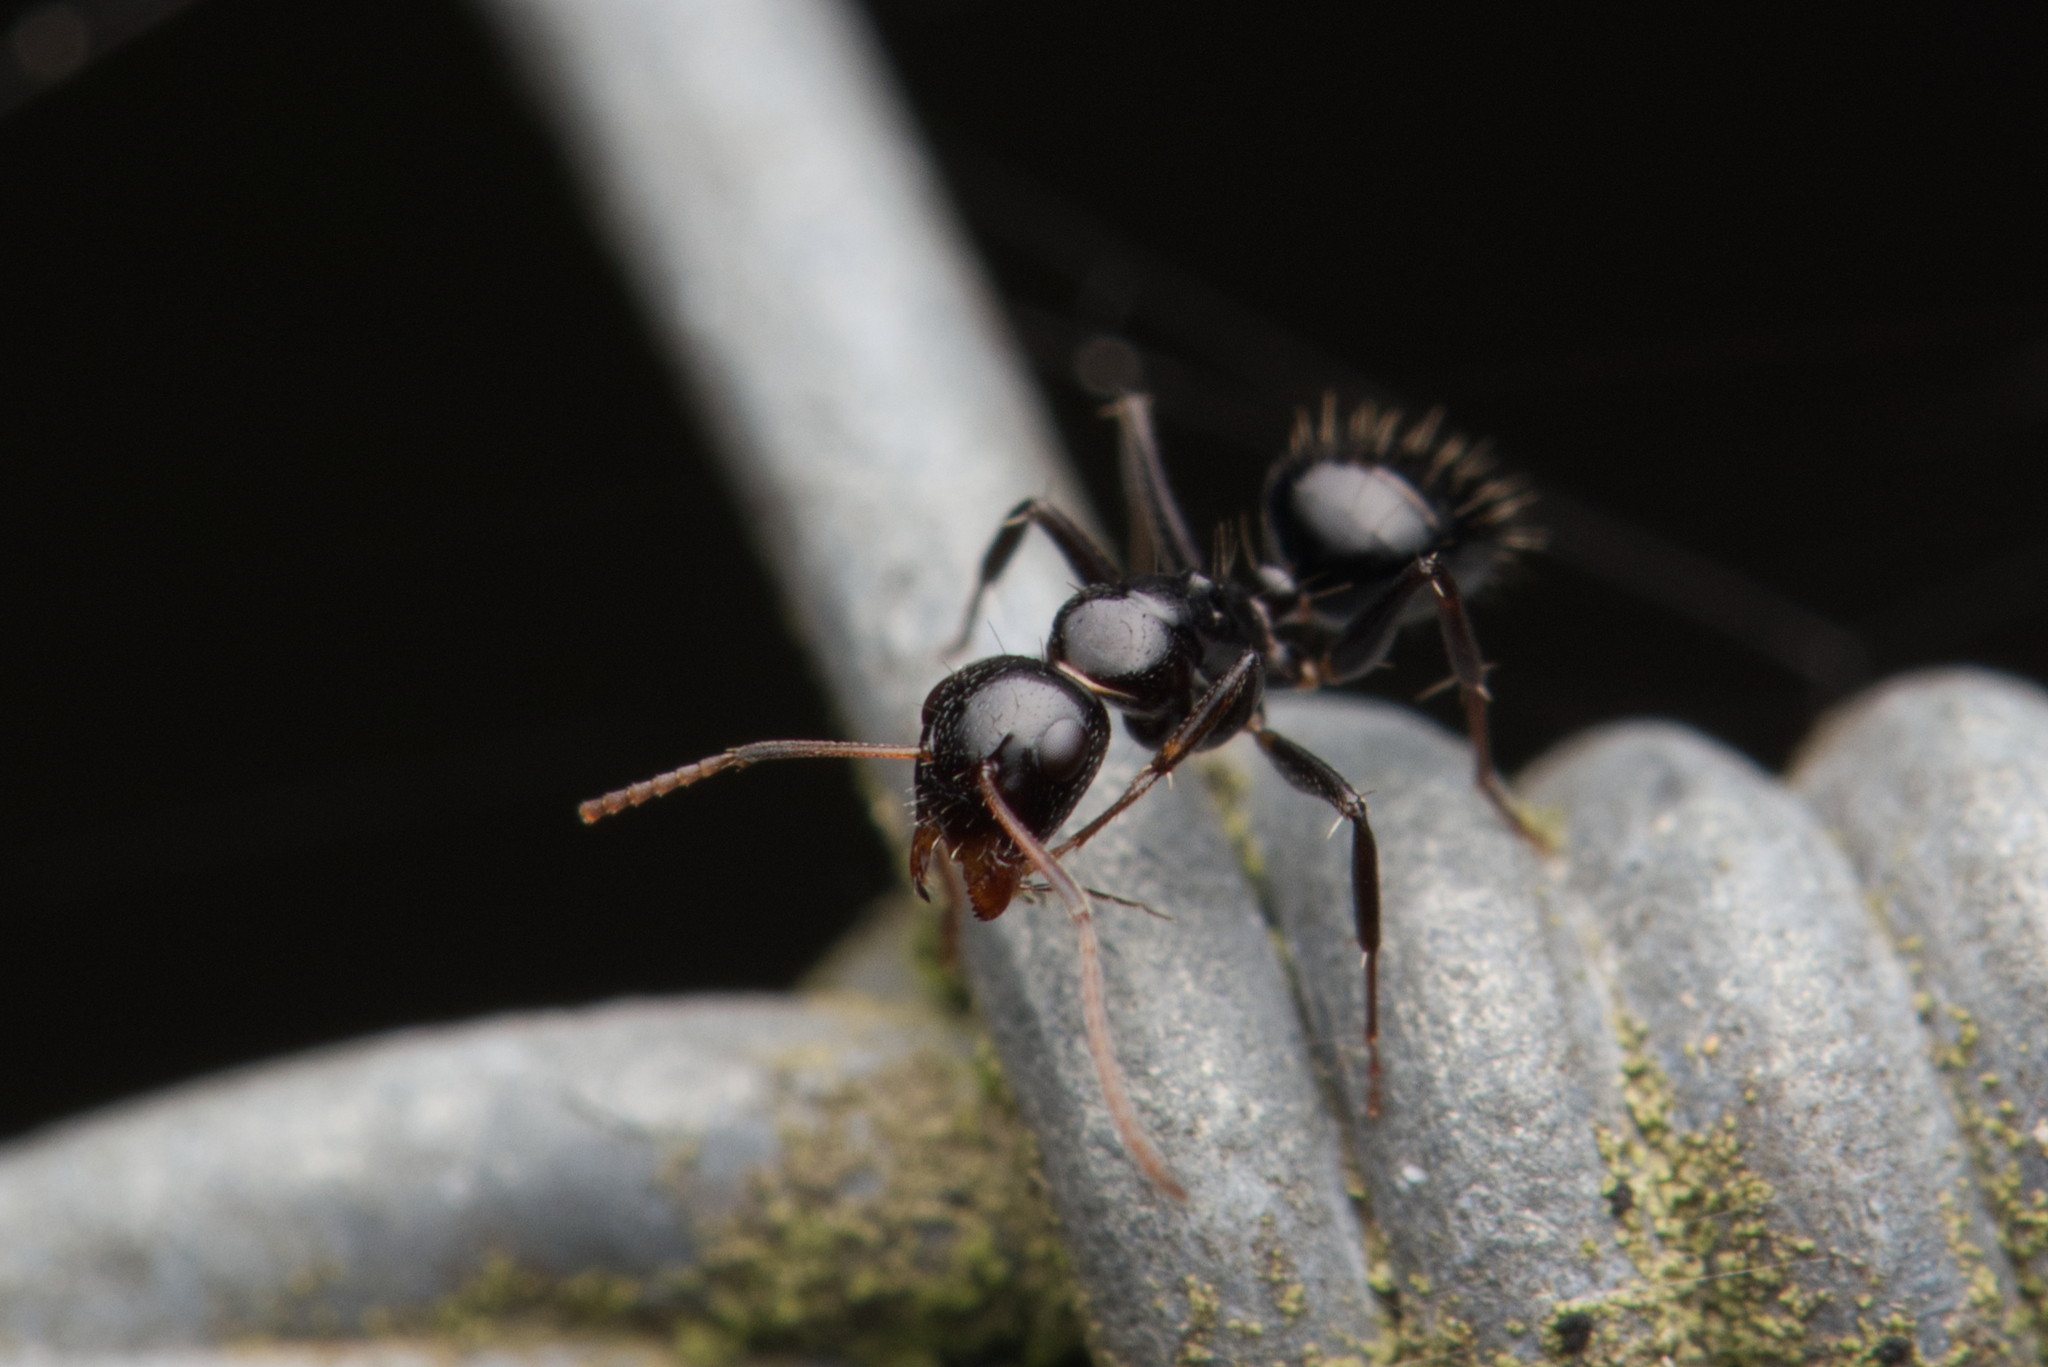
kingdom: Animalia
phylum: Arthropoda
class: Insecta
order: Hymenoptera
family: Formicidae
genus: Camponotus
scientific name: Camponotus mackayensis
